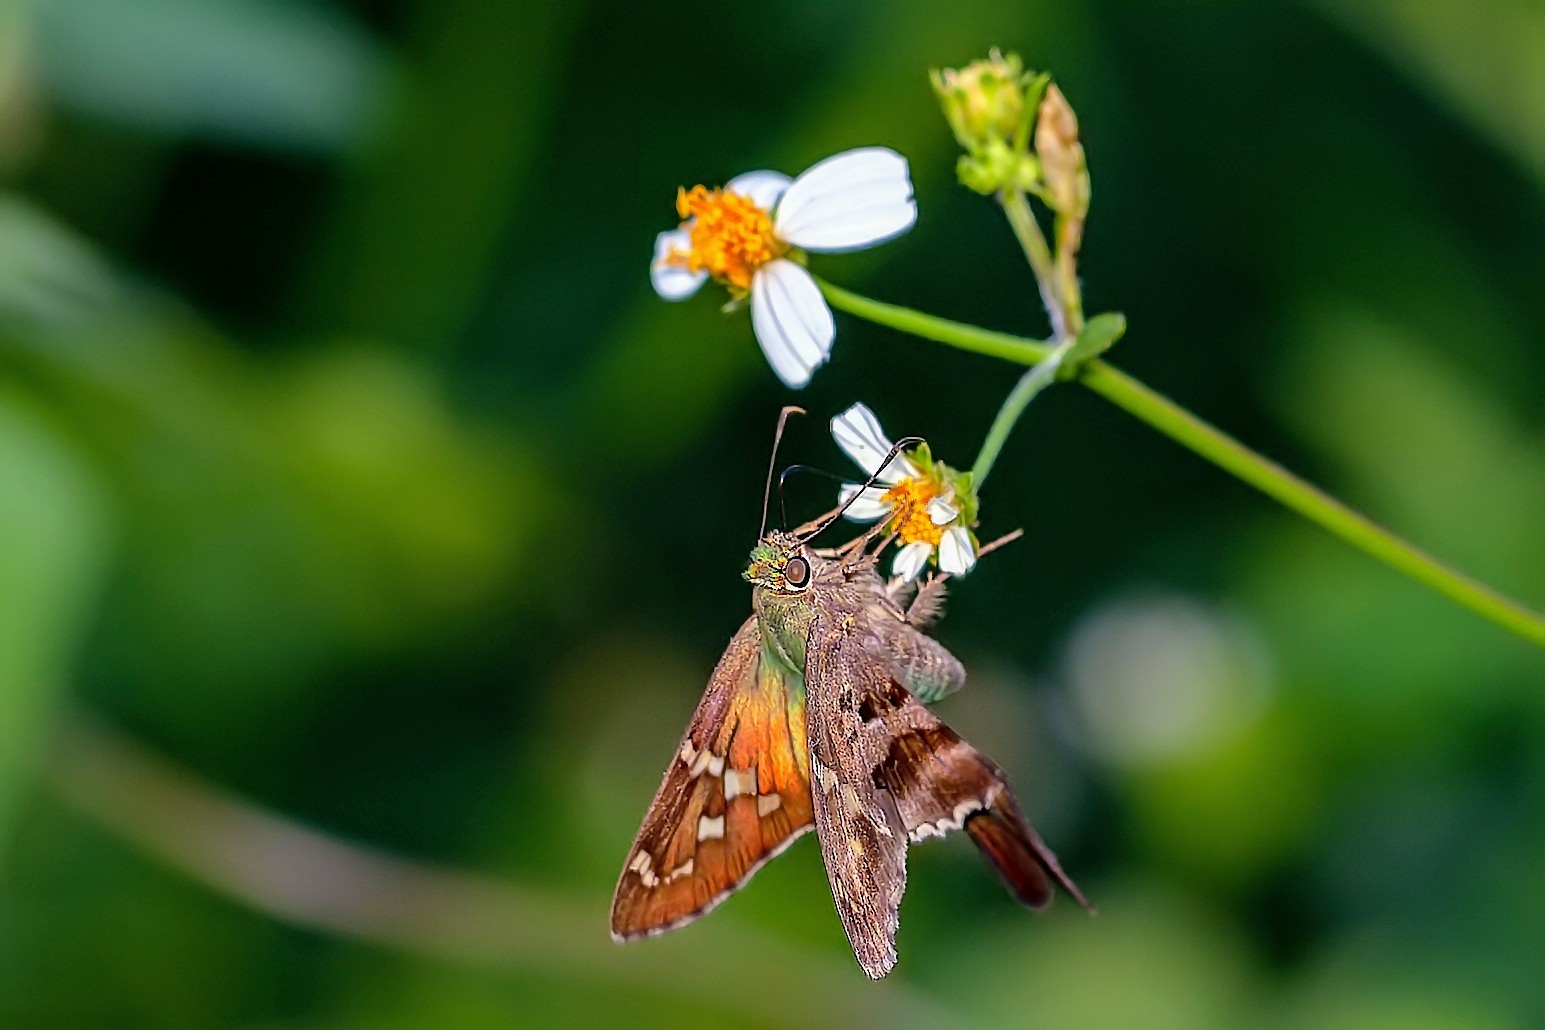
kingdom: Animalia
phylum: Arthropoda
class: Insecta
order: Lepidoptera
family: Hesperiidae
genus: Urbanus
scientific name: Urbanus proteus
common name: Long-tailed skipper
